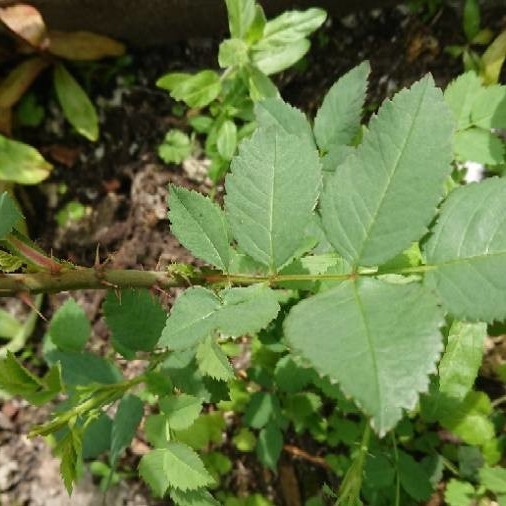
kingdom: Plantae
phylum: Tracheophyta
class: Magnoliopsida
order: Rosales
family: Rosaceae
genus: Rosa
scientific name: Rosa canina
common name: Dog rose
